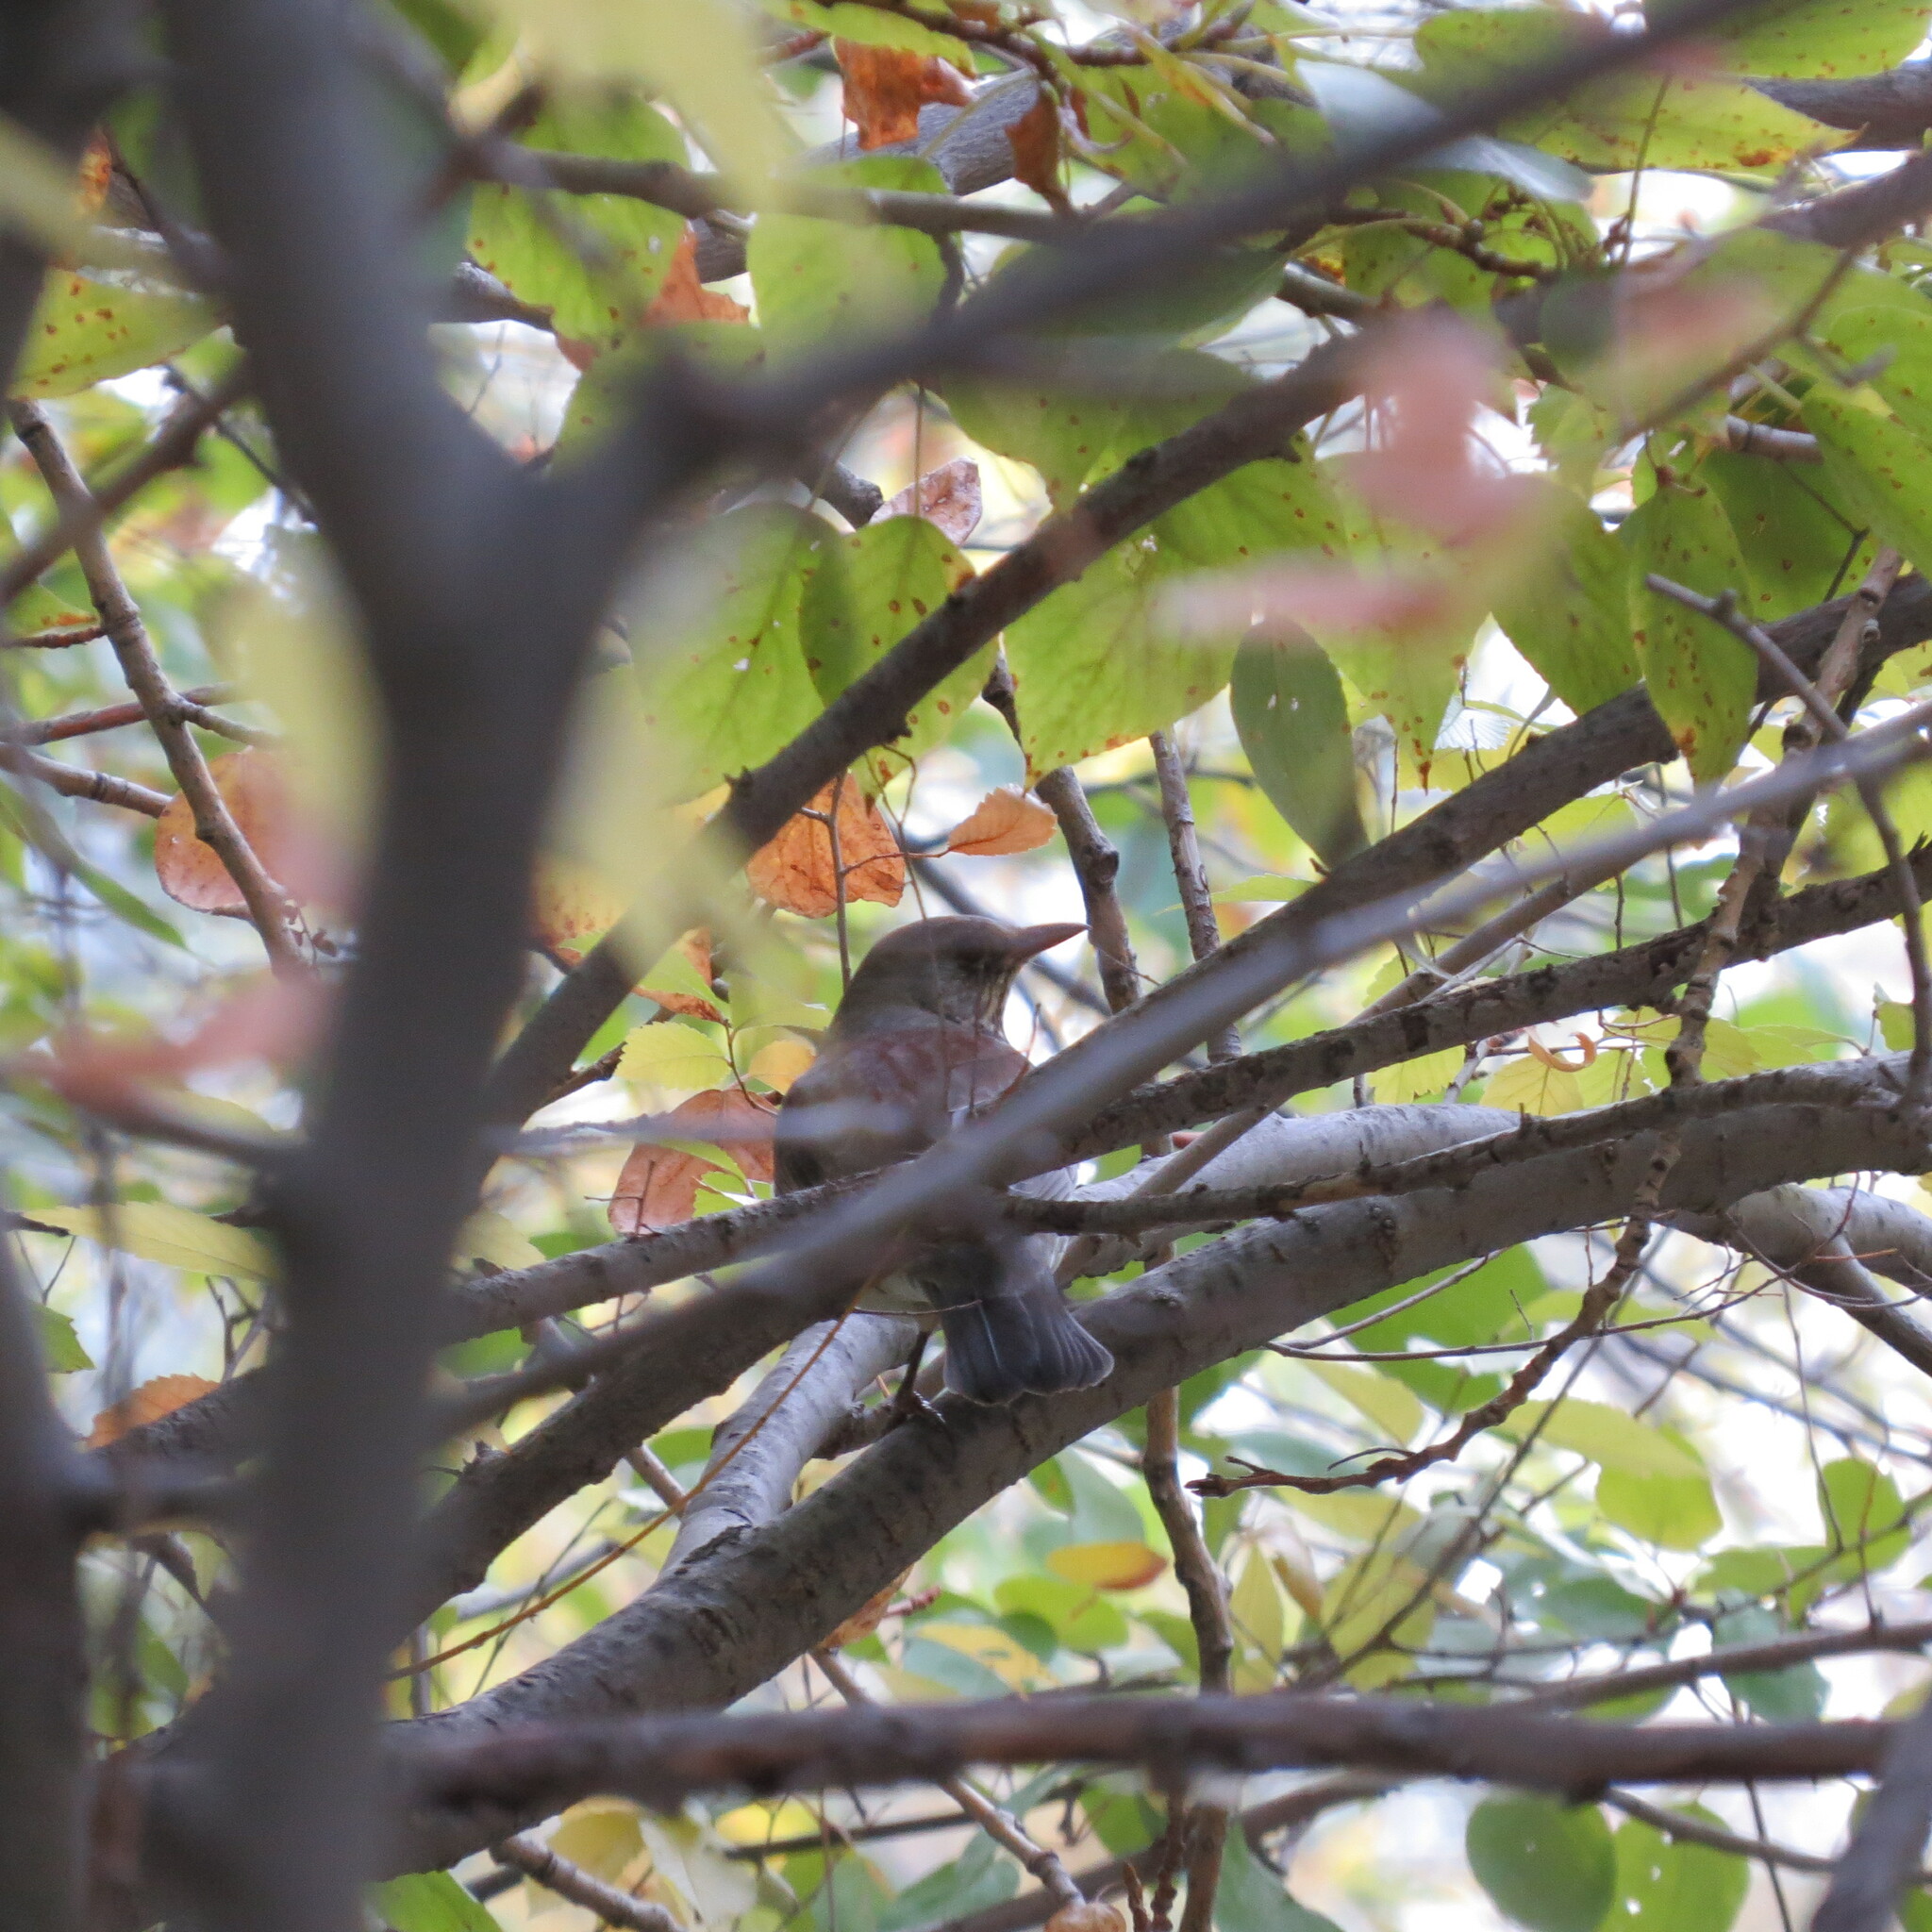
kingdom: Animalia
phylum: Chordata
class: Aves
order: Passeriformes
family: Turdidae
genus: Turdus
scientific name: Turdus pilaris
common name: Fieldfare
